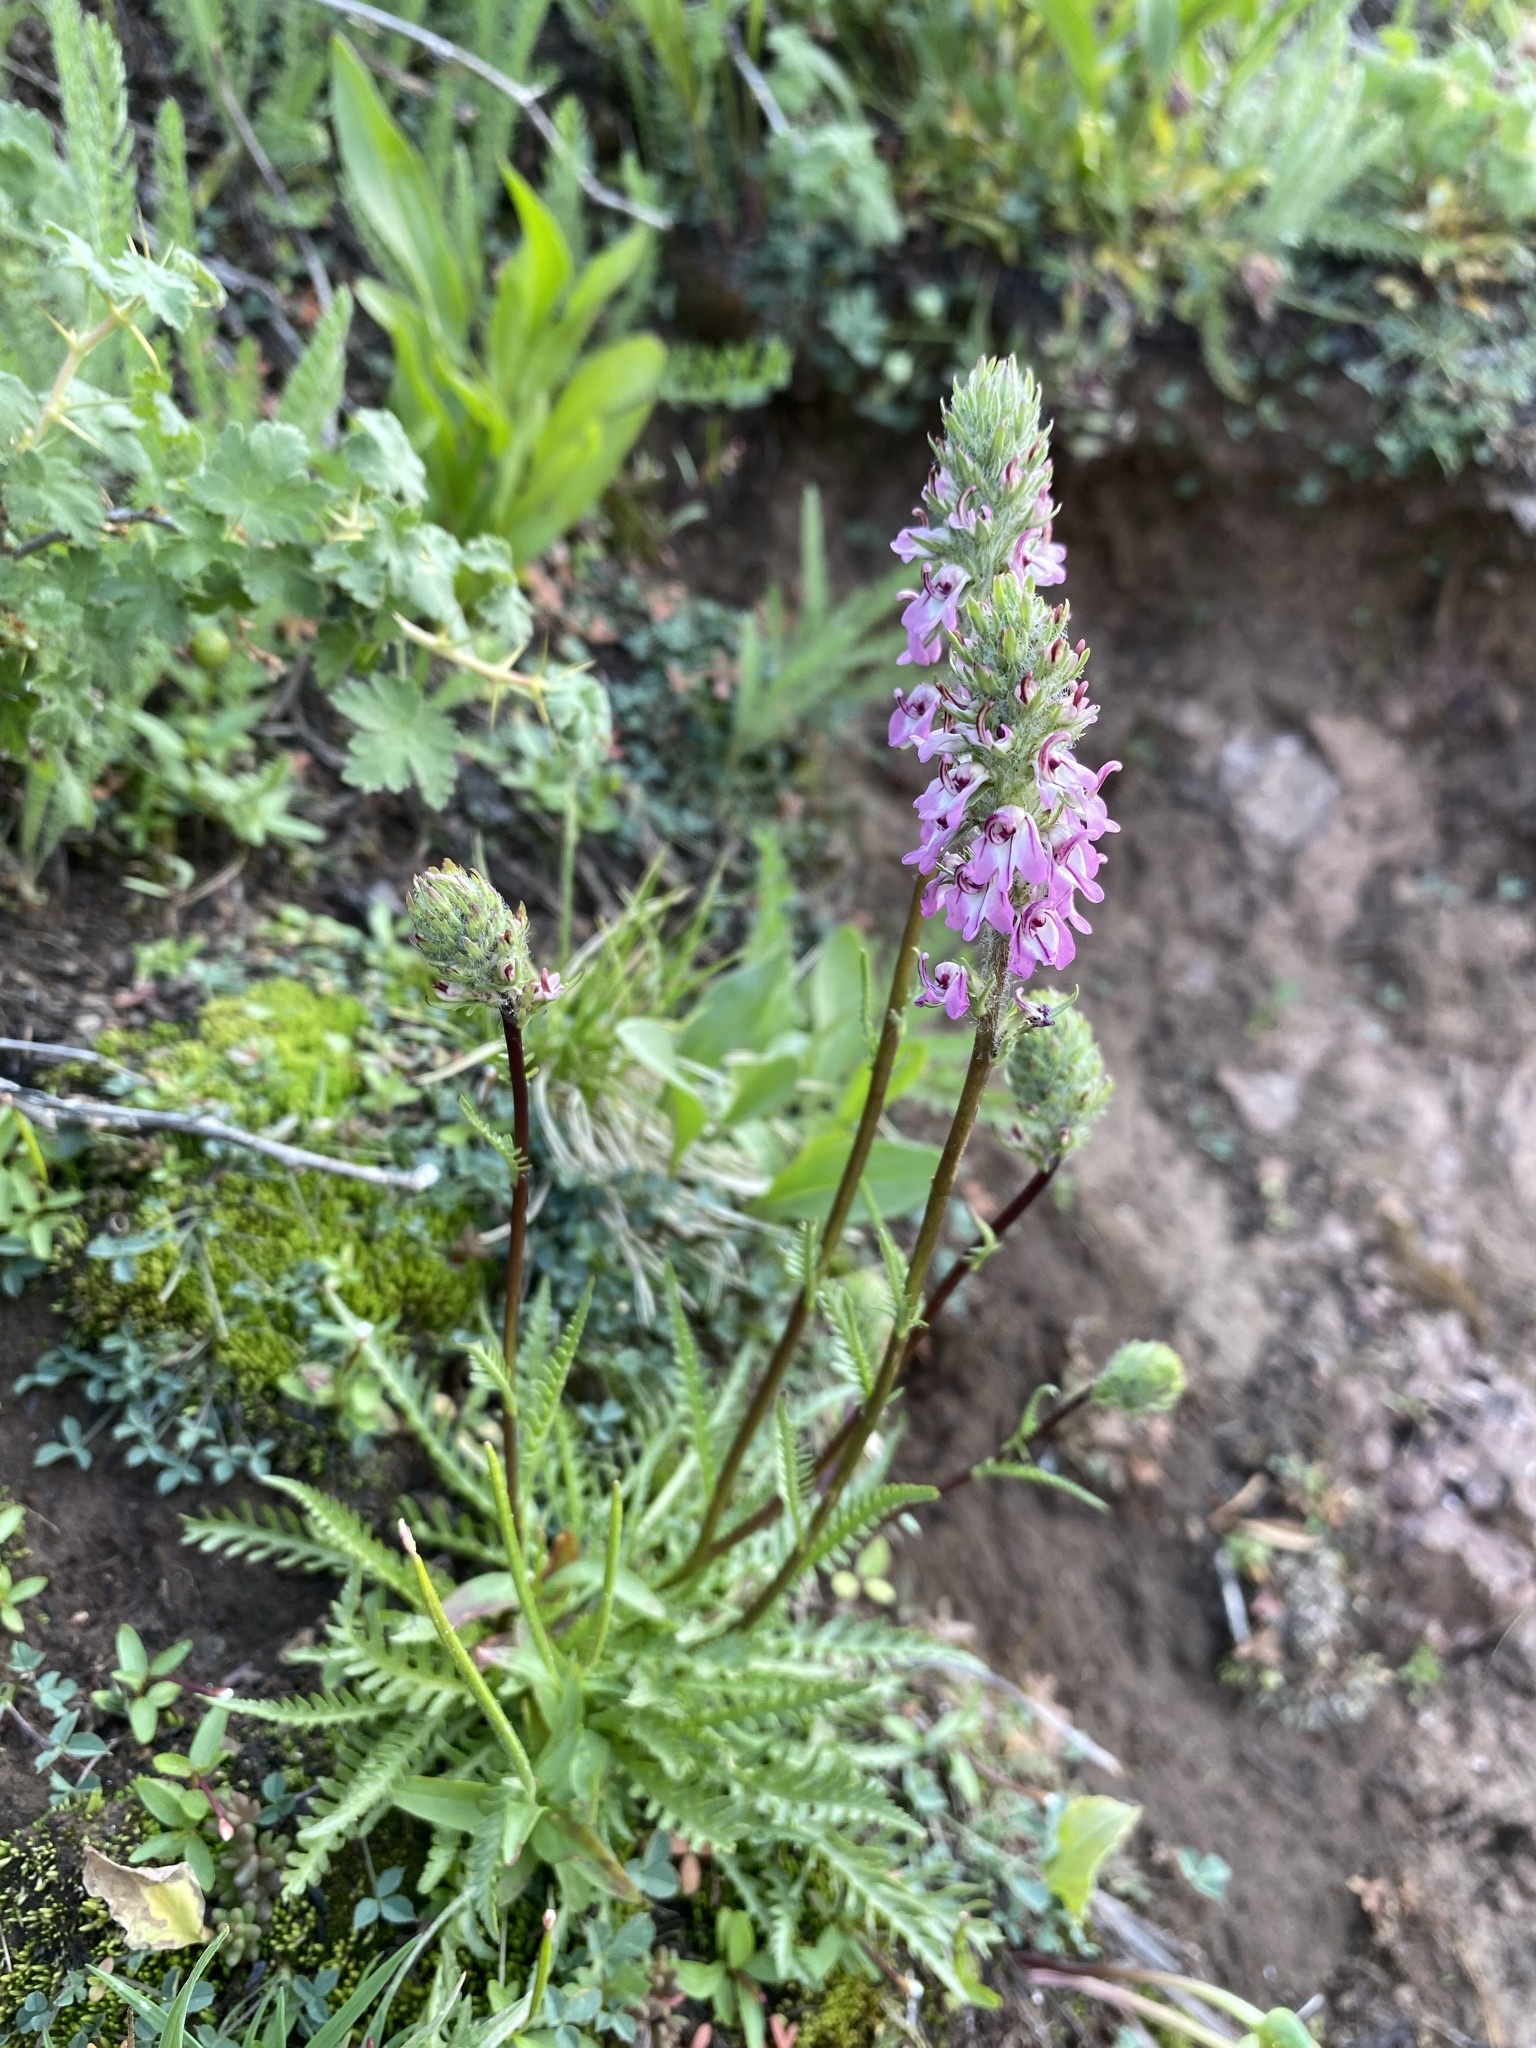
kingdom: Plantae
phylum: Tracheophyta
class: Magnoliopsida
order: Lamiales
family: Orobanchaceae
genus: Pedicularis
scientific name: Pedicularis attollens
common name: Slender pedicularis
